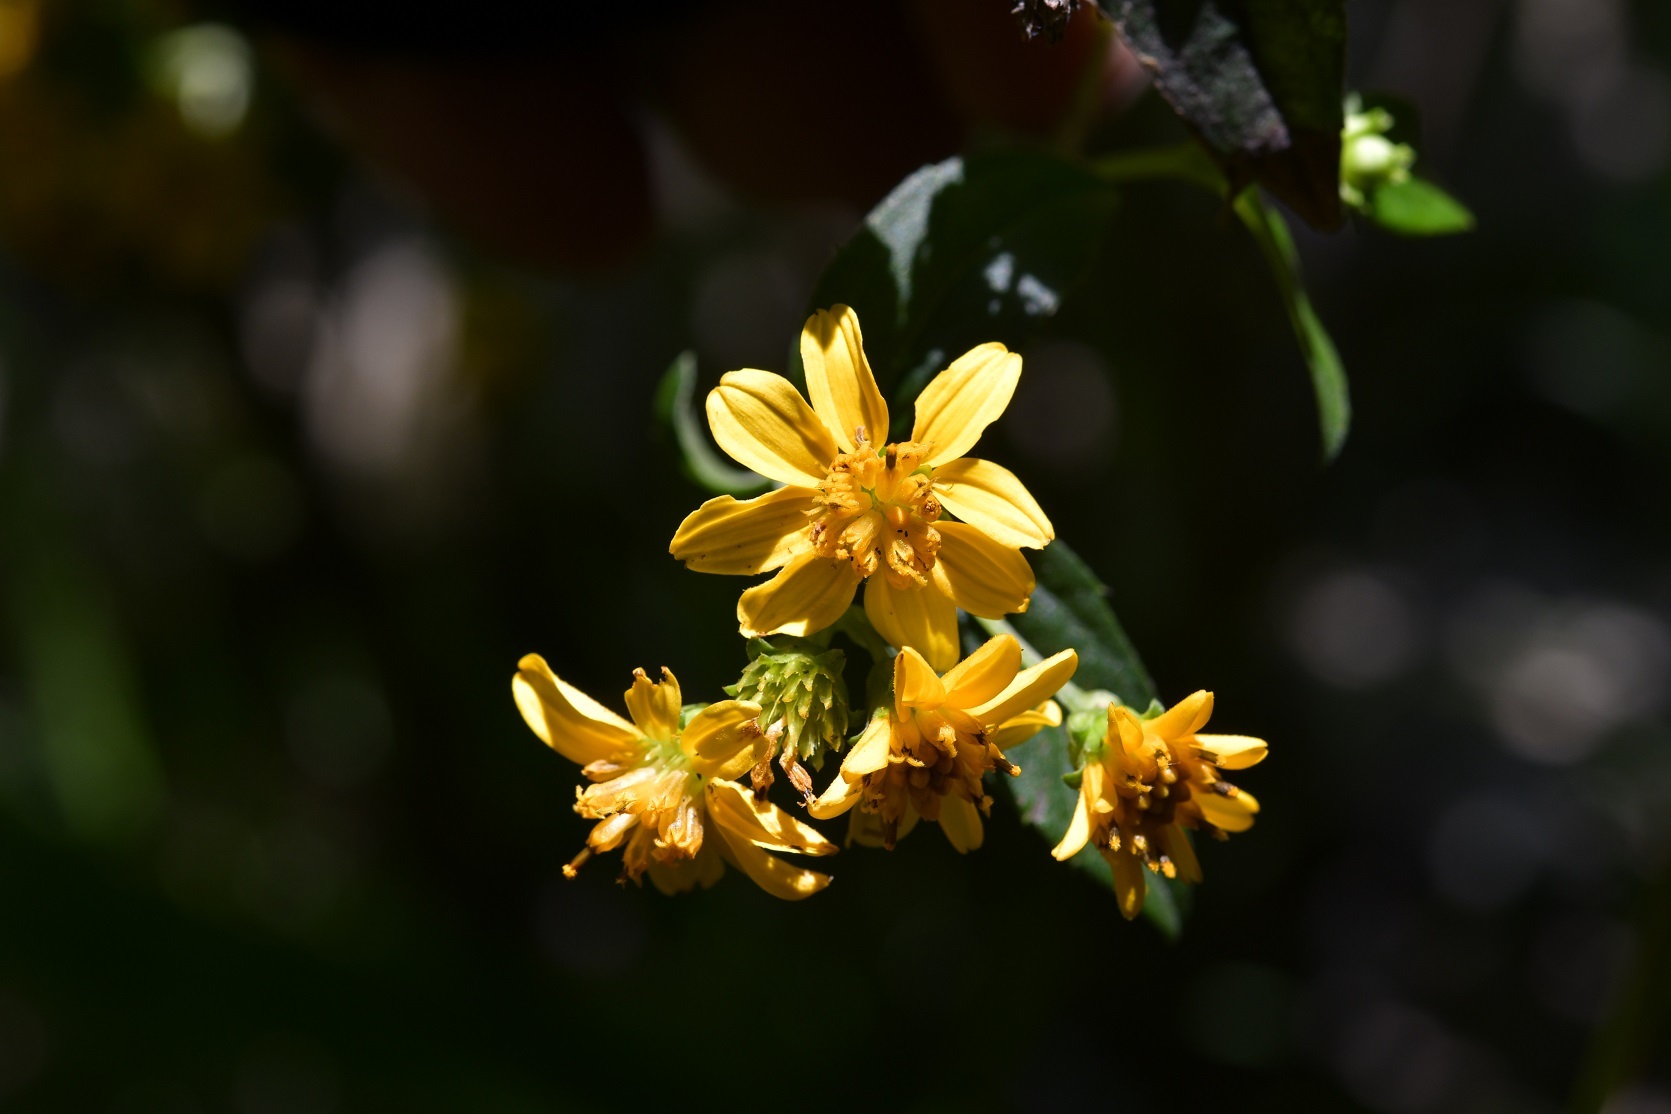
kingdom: Plantae
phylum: Tracheophyta
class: Magnoliopsida
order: Asterales
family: Asteraceae
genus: Perymenium
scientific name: Perymenium ghiesbreghtii
